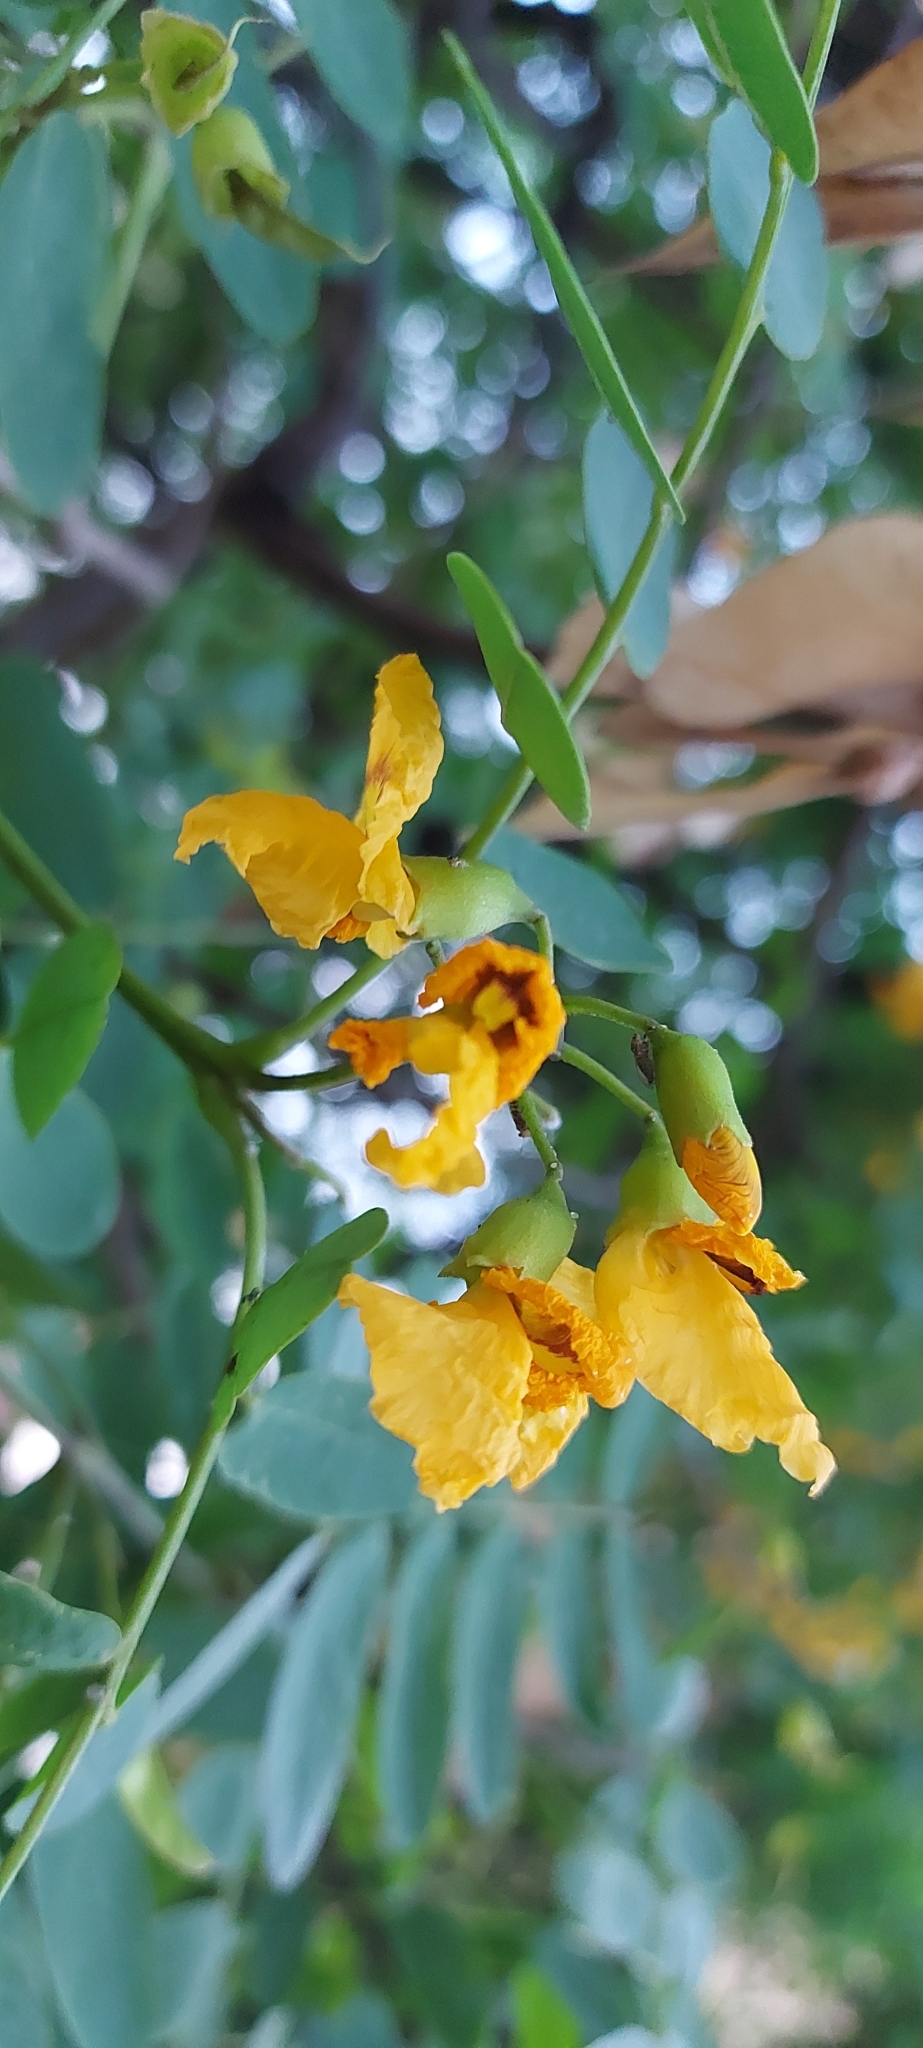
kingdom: Plantae
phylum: Tracheophyta
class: Magnoliopsida
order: Fabales
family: Fabaceae
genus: Tipuana
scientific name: Tipuana tipu
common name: Tiputree
